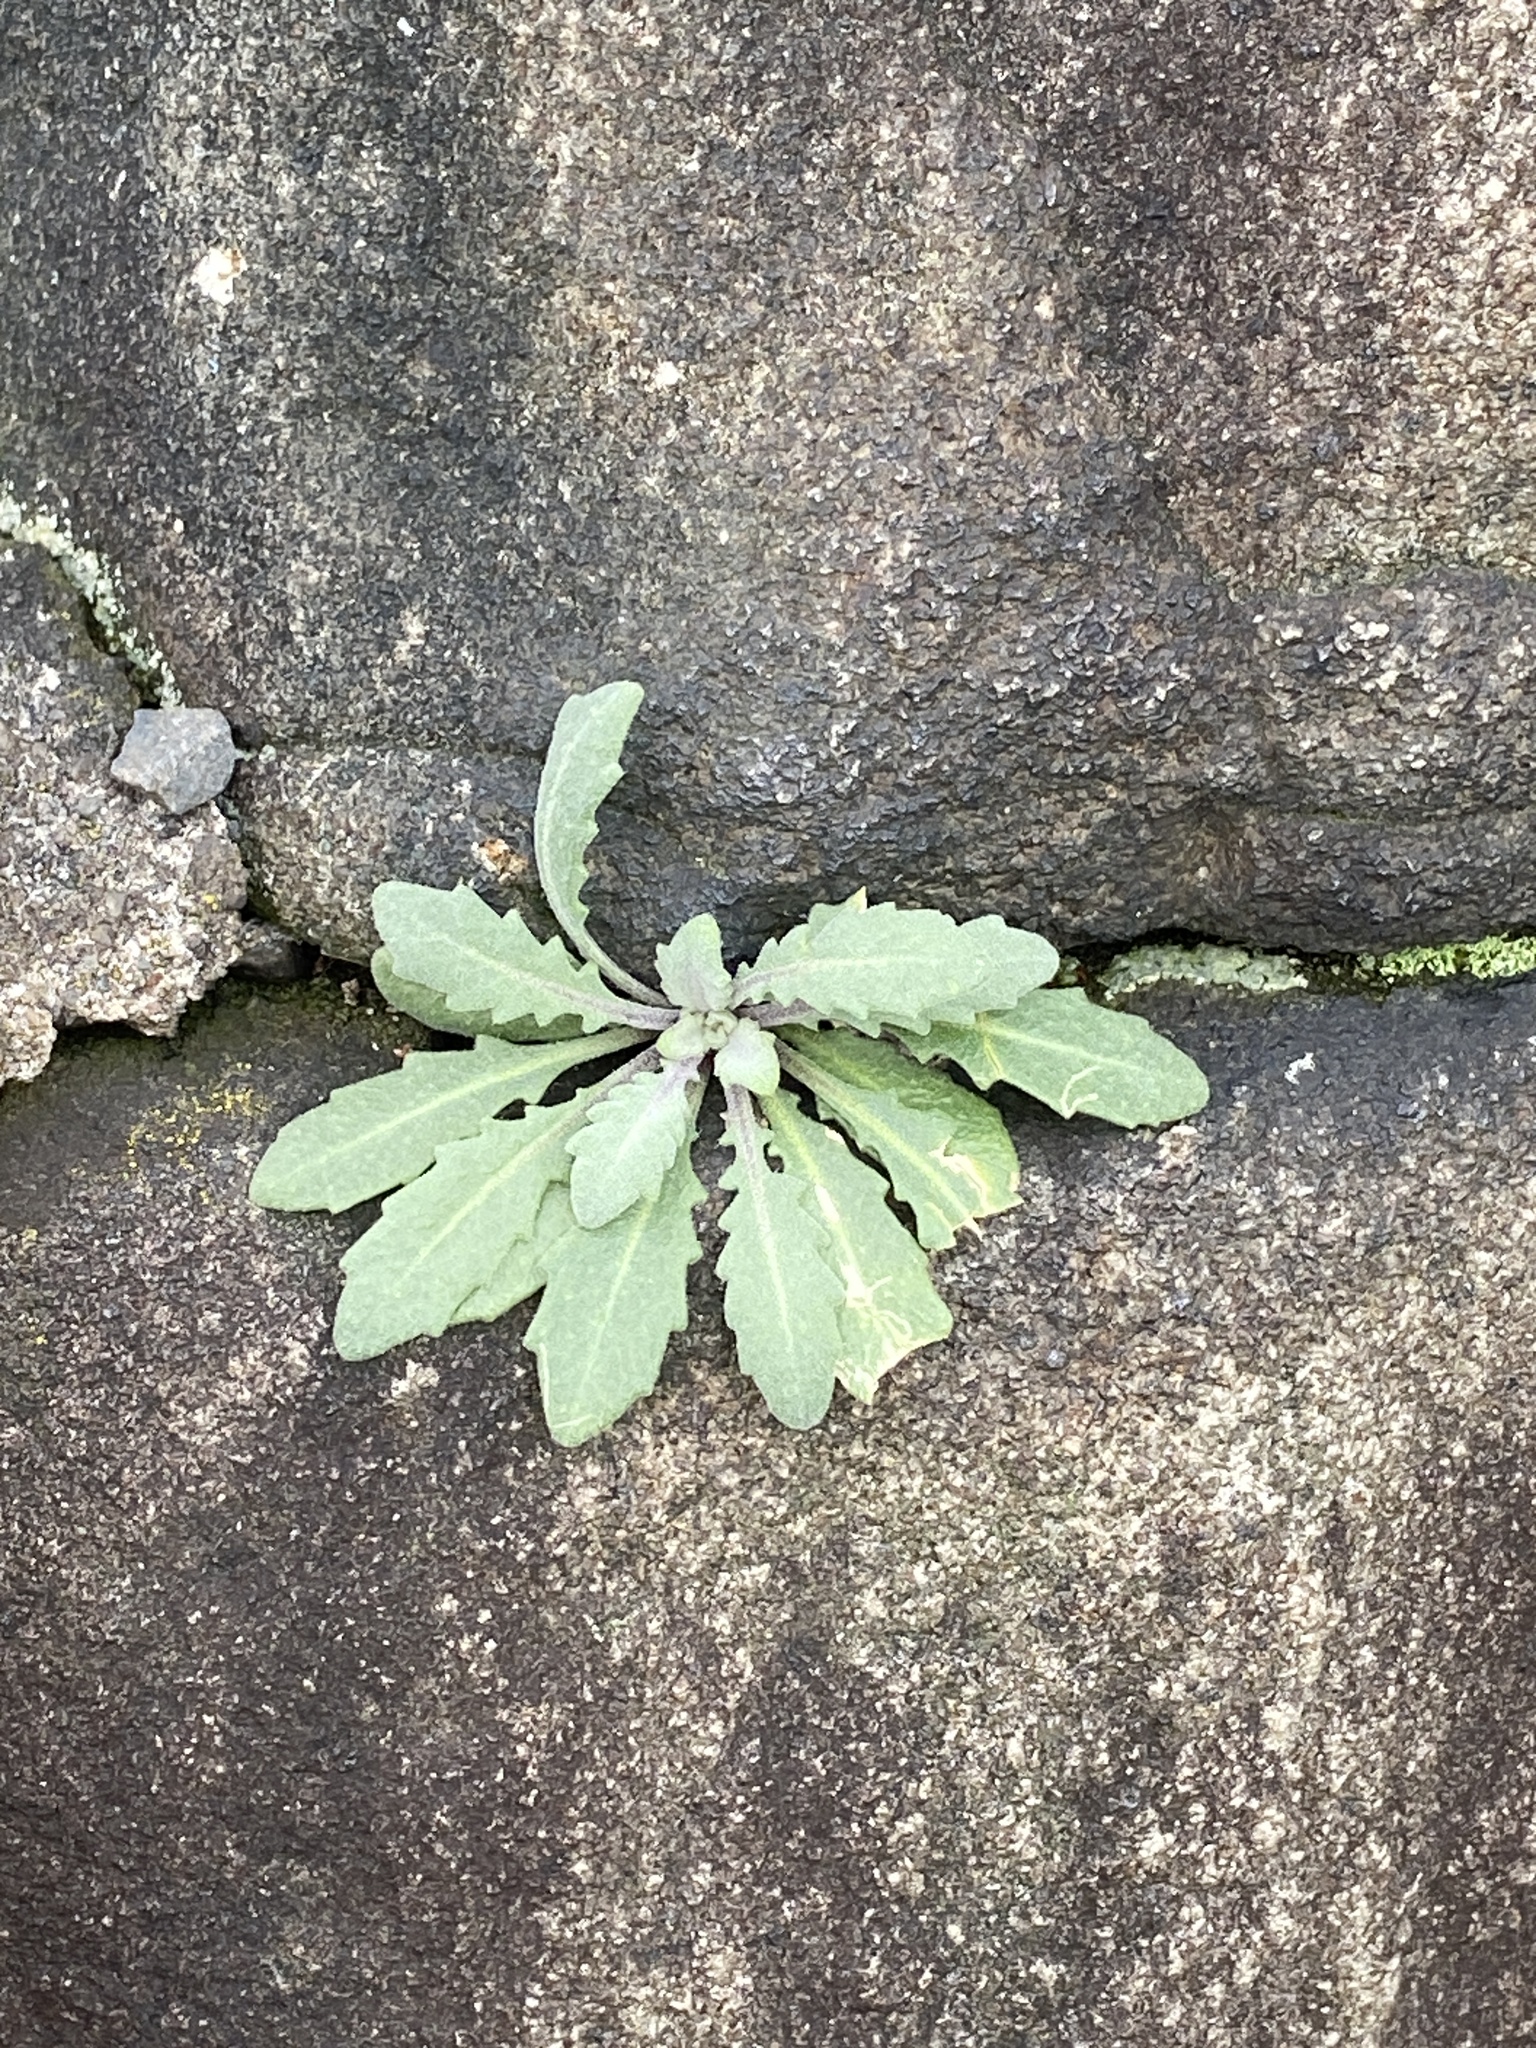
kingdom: Plantae
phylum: Tracheophyta
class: Magnoliopsida
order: Brassicales
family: Brassicaceae
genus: Arabidopsis
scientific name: Arabidopsis lyrata
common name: Lyrate rockcress
